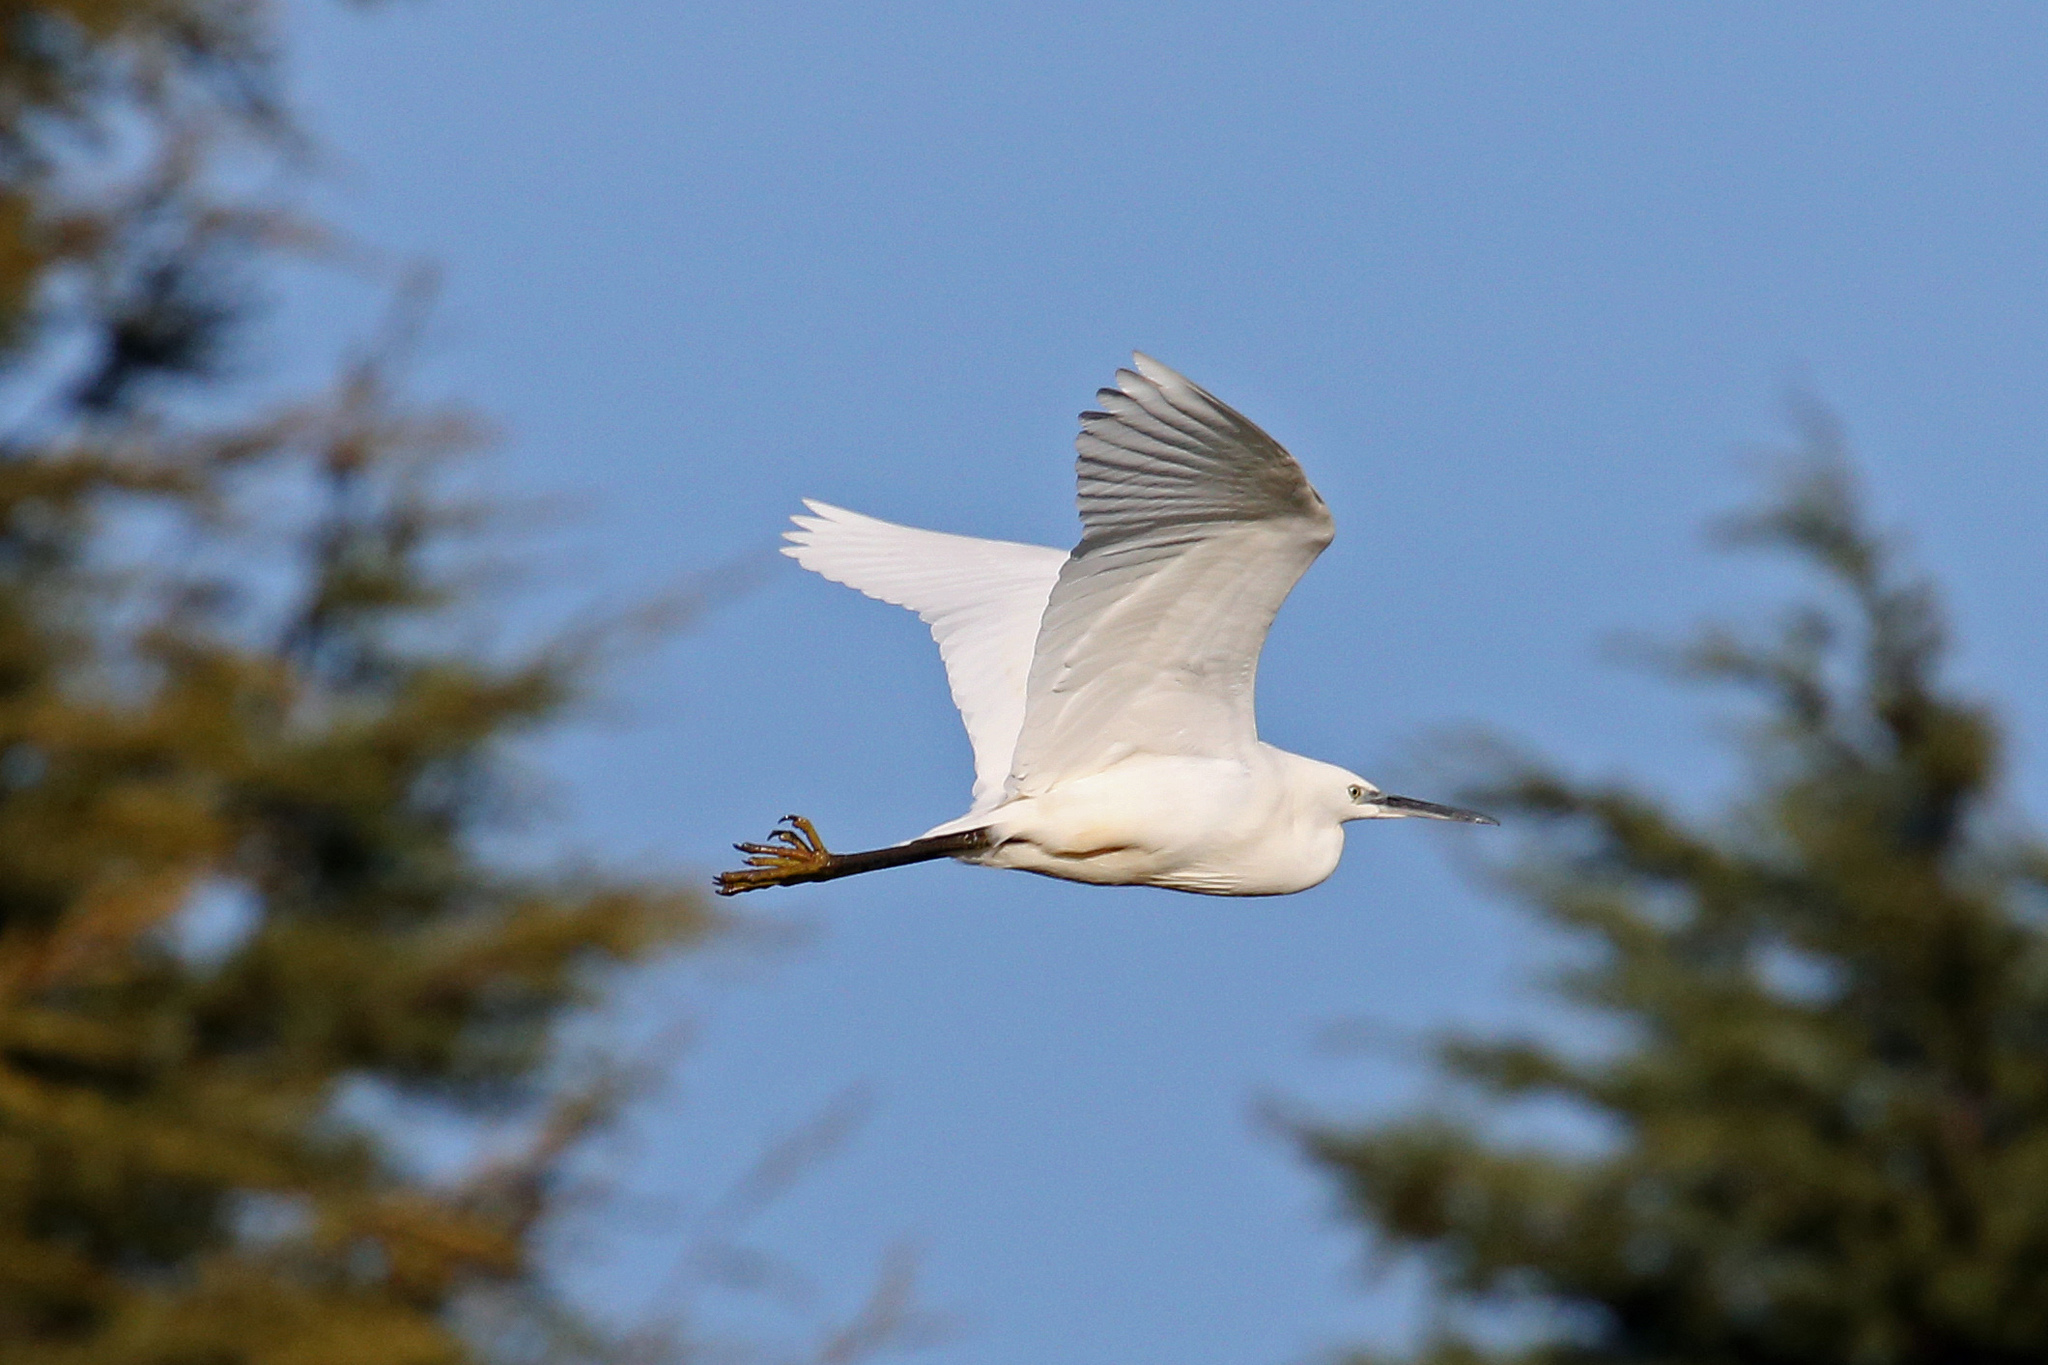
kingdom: Animalia
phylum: Chordata
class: Aves
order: Pelecaniformes
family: Ardeidae
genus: Egretta
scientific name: Egretta garzetta
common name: Little egret
